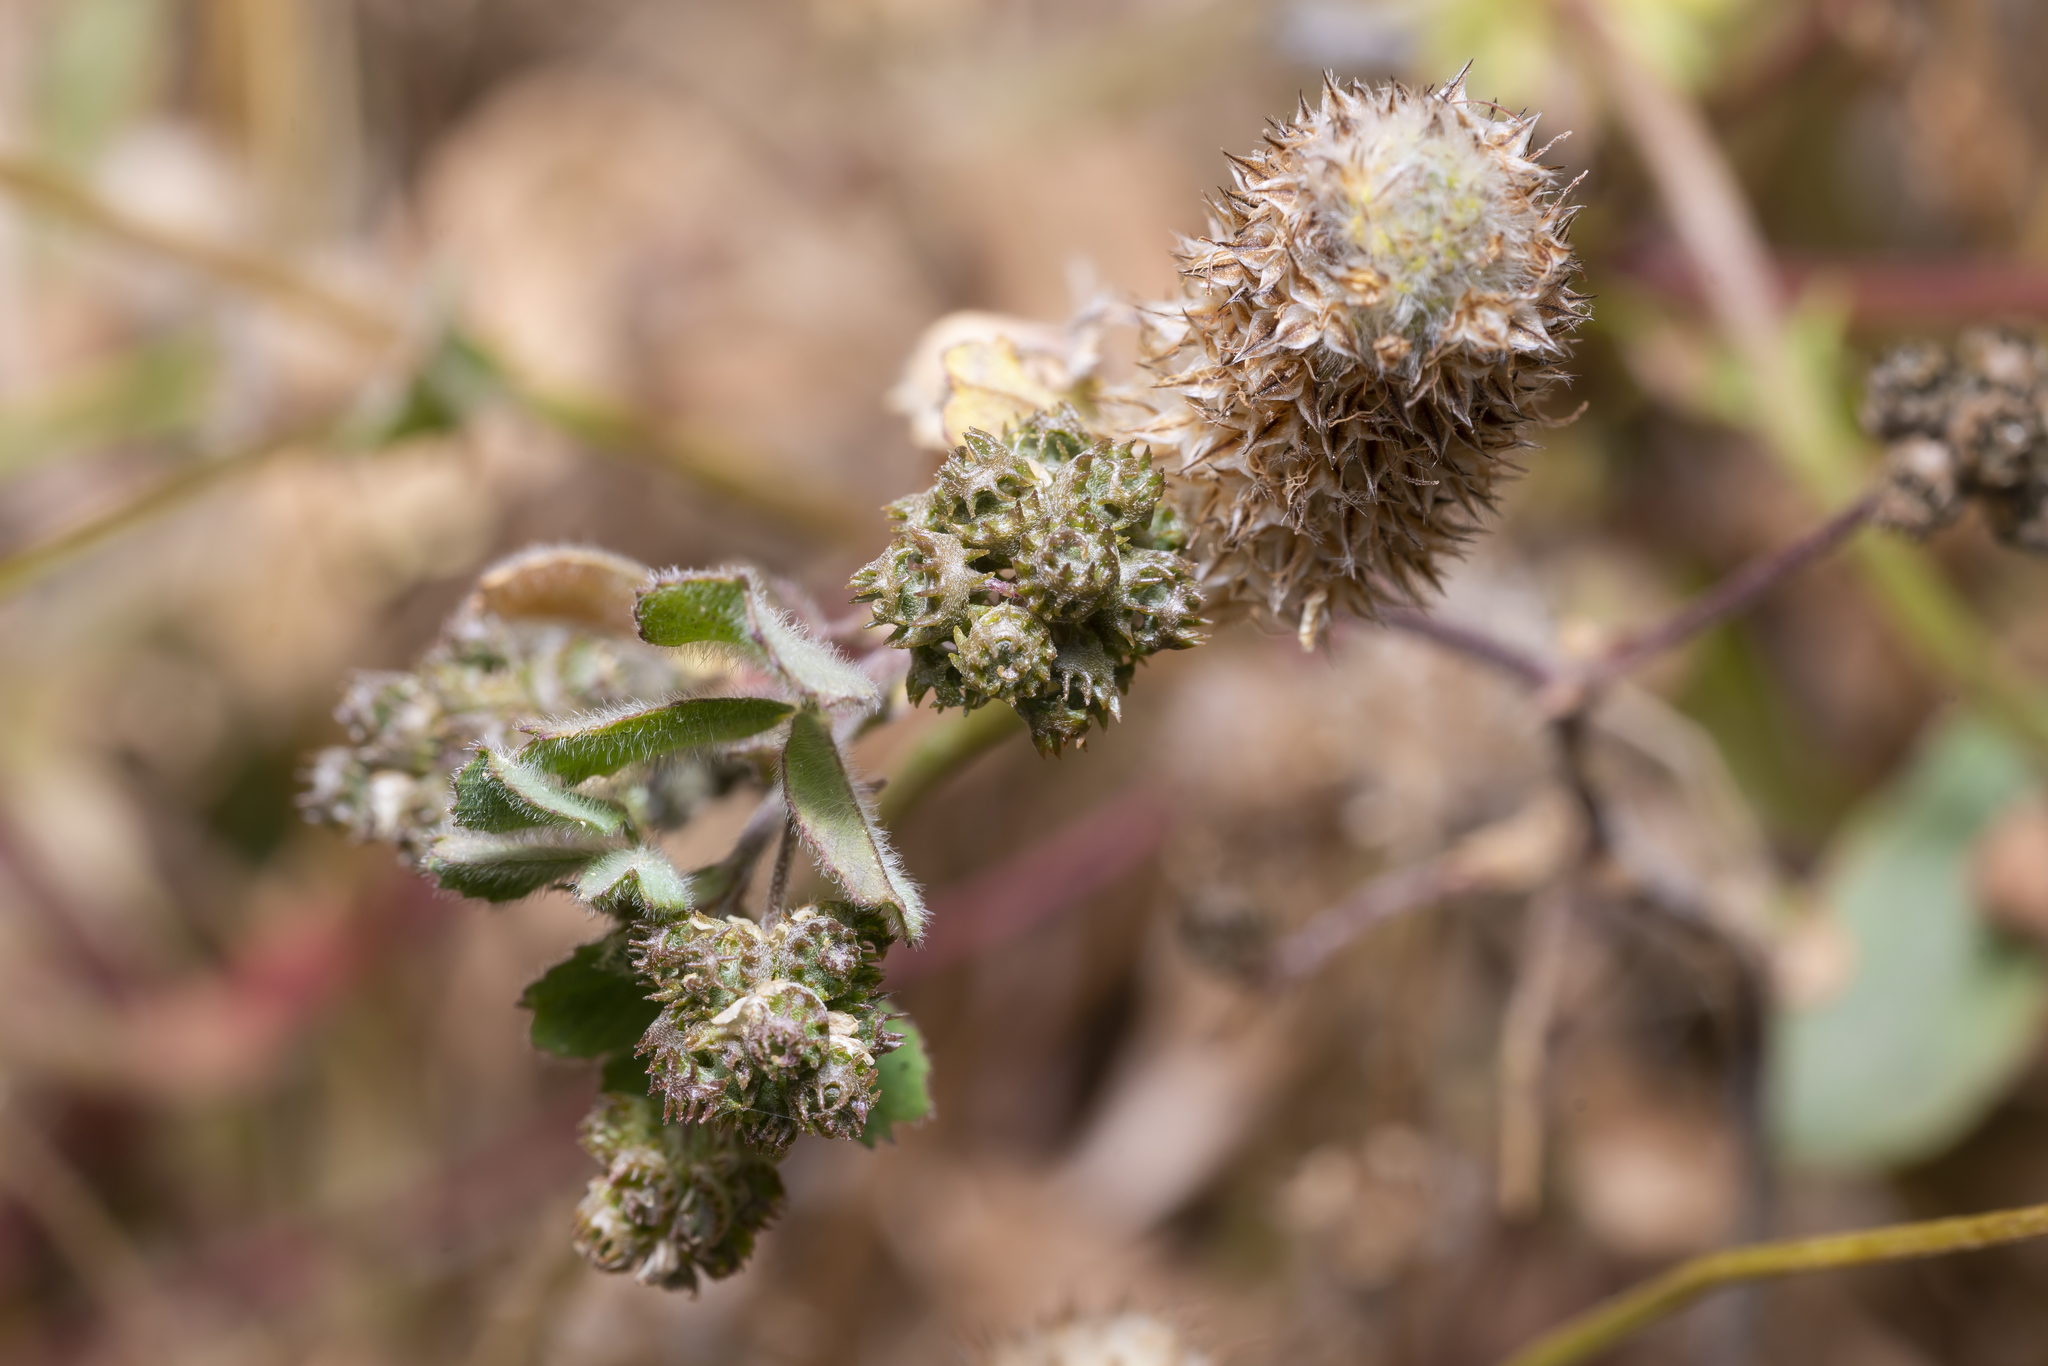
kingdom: Plantae
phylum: Tracheophyta
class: Magnoliopsida
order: Fabales
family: Fabaceae
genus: Medicago
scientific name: Medicago coronata
